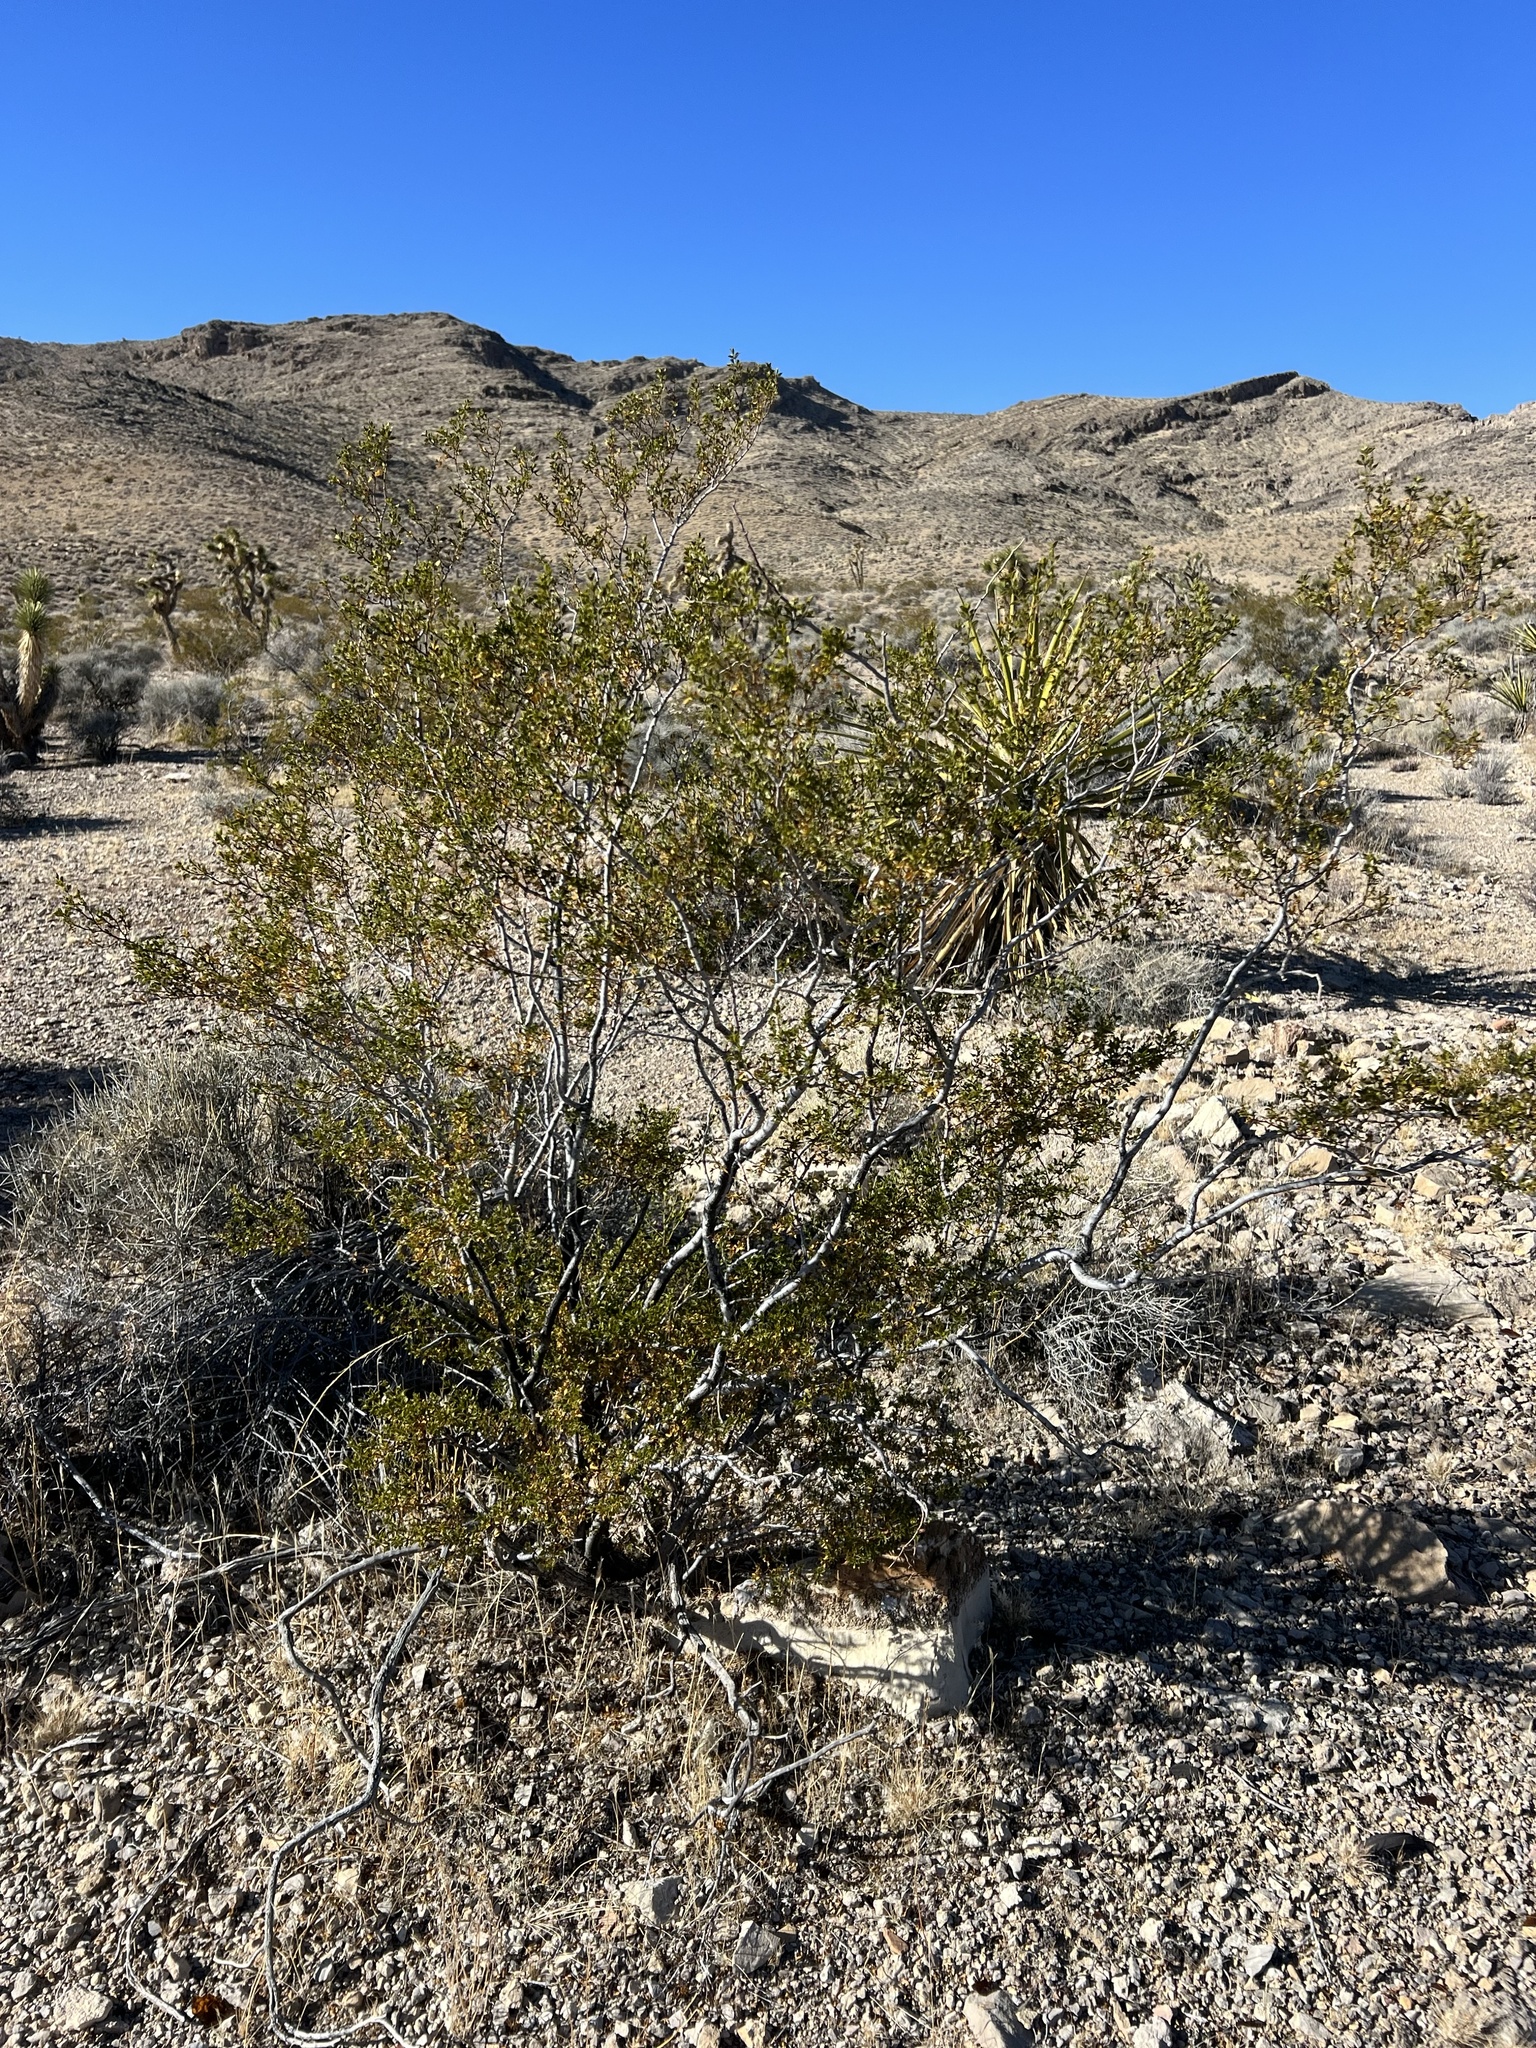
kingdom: Plantae
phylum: Tracheophyta
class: Magnoliopsida
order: Zygophyllales
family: Zygophyllaceae
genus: Larrea
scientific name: Larrea tridentata
